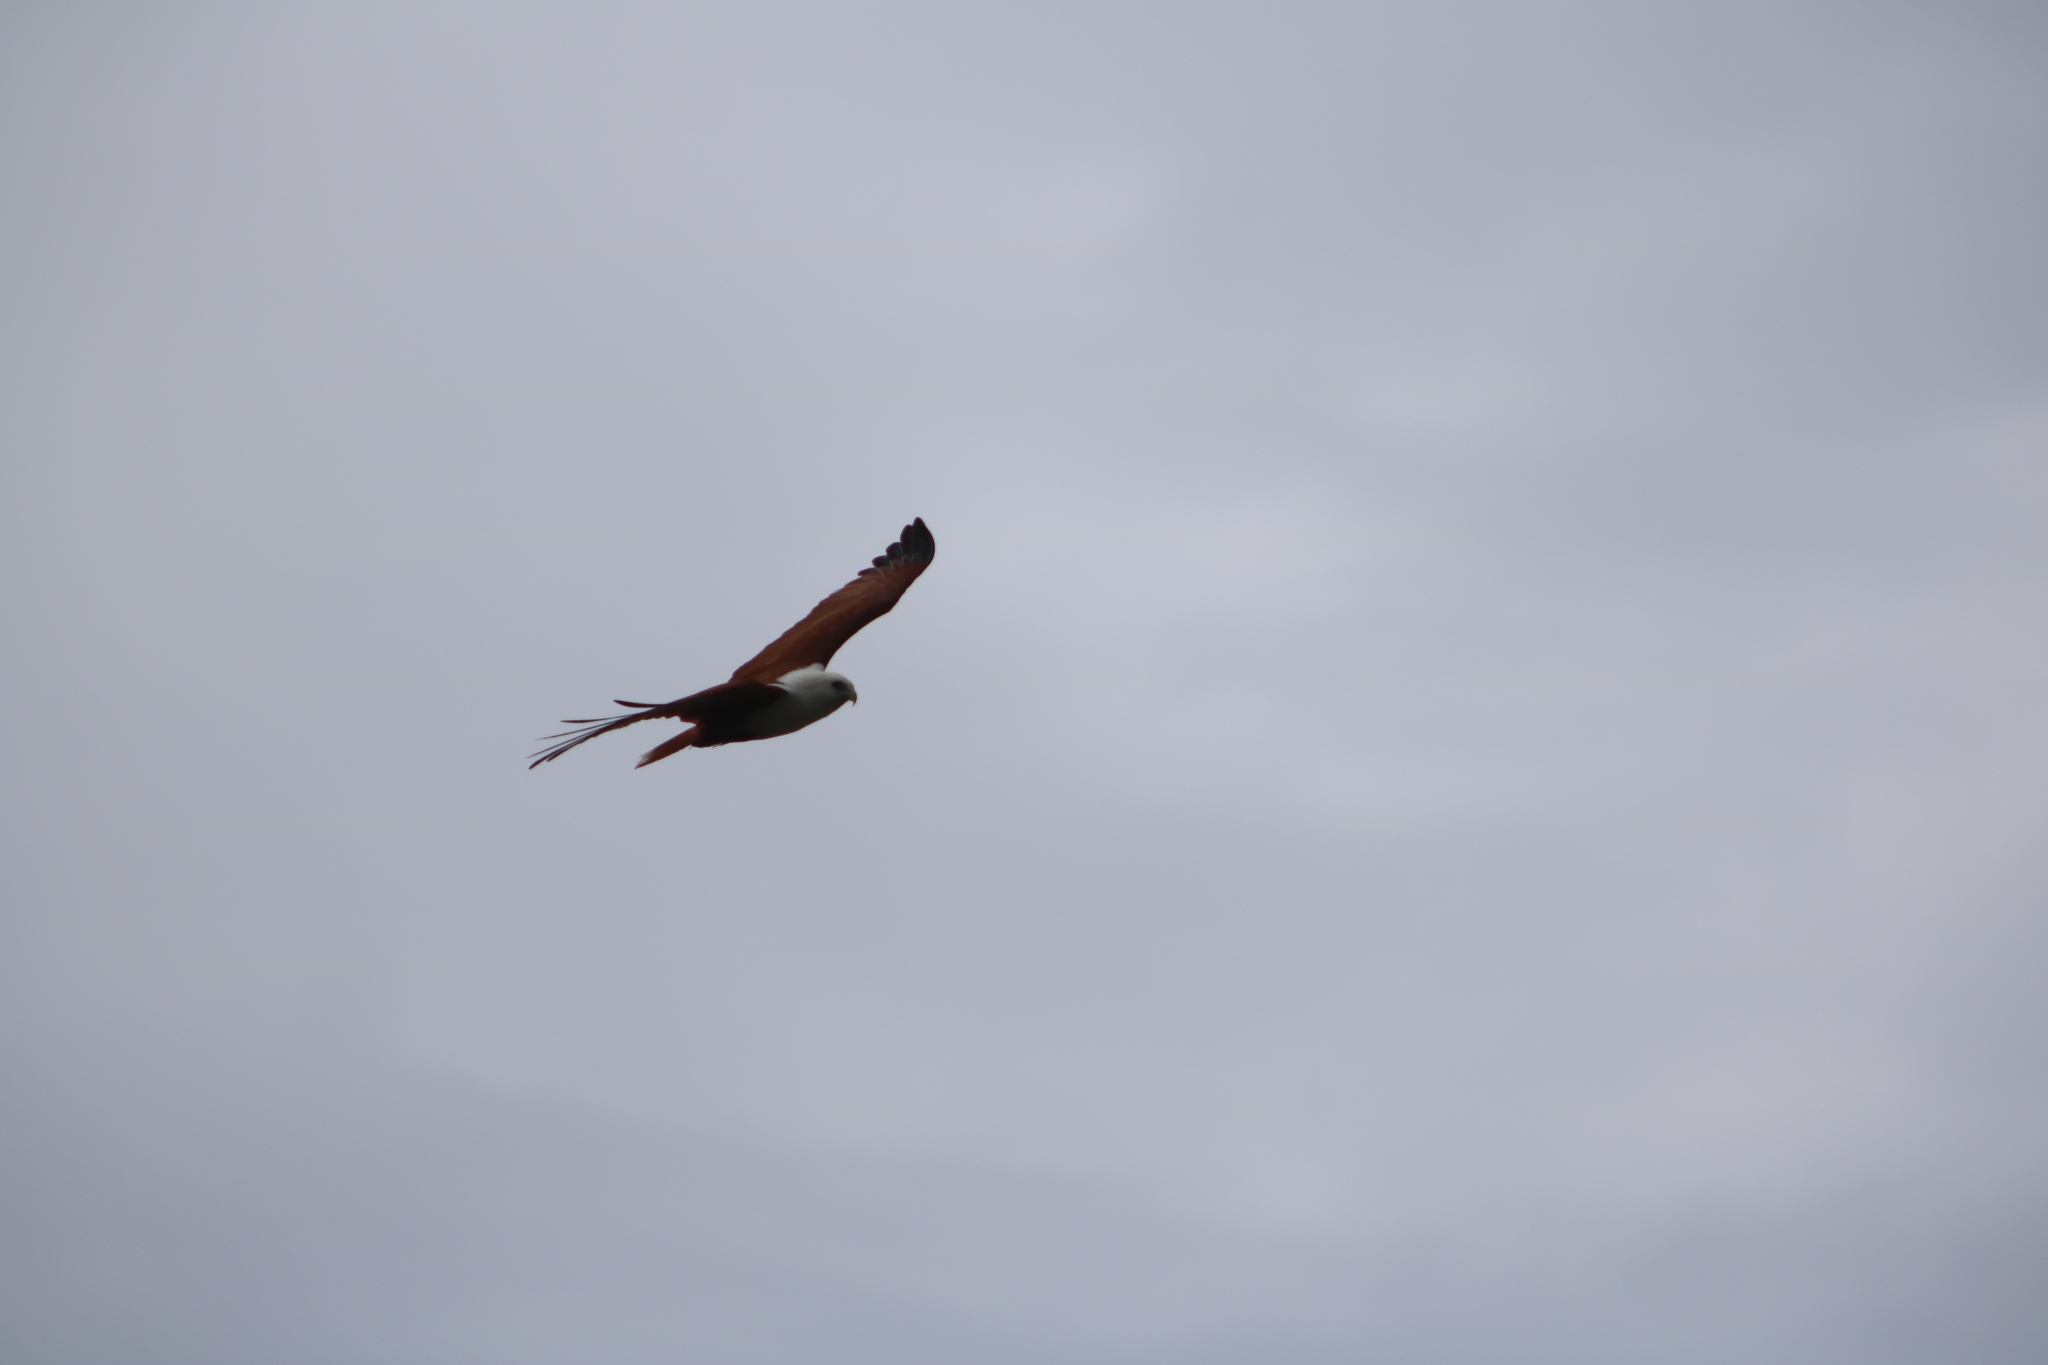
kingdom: Animalia
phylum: Chordata
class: Aves
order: Accipitriformes
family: Accipitridae
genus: Haliastur
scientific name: Haliastur indus
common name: Brahminy kite
